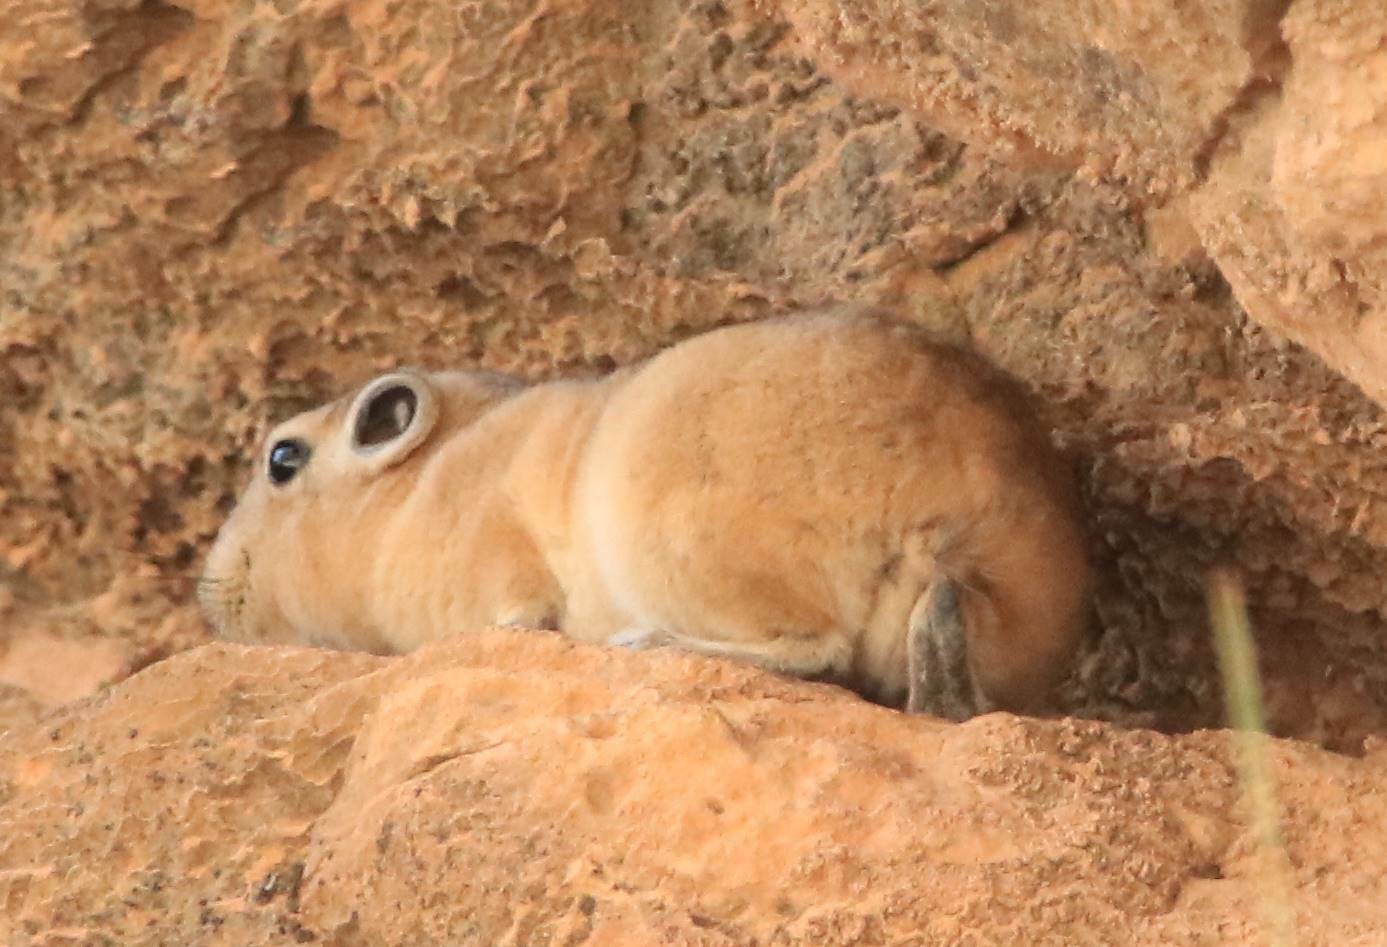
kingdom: Animalia
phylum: Chordata
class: Mammalia
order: Rodentia
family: Ctenodactylidae
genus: Ctenodactylus
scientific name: Ctenodactylus gundi
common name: Common gundi
